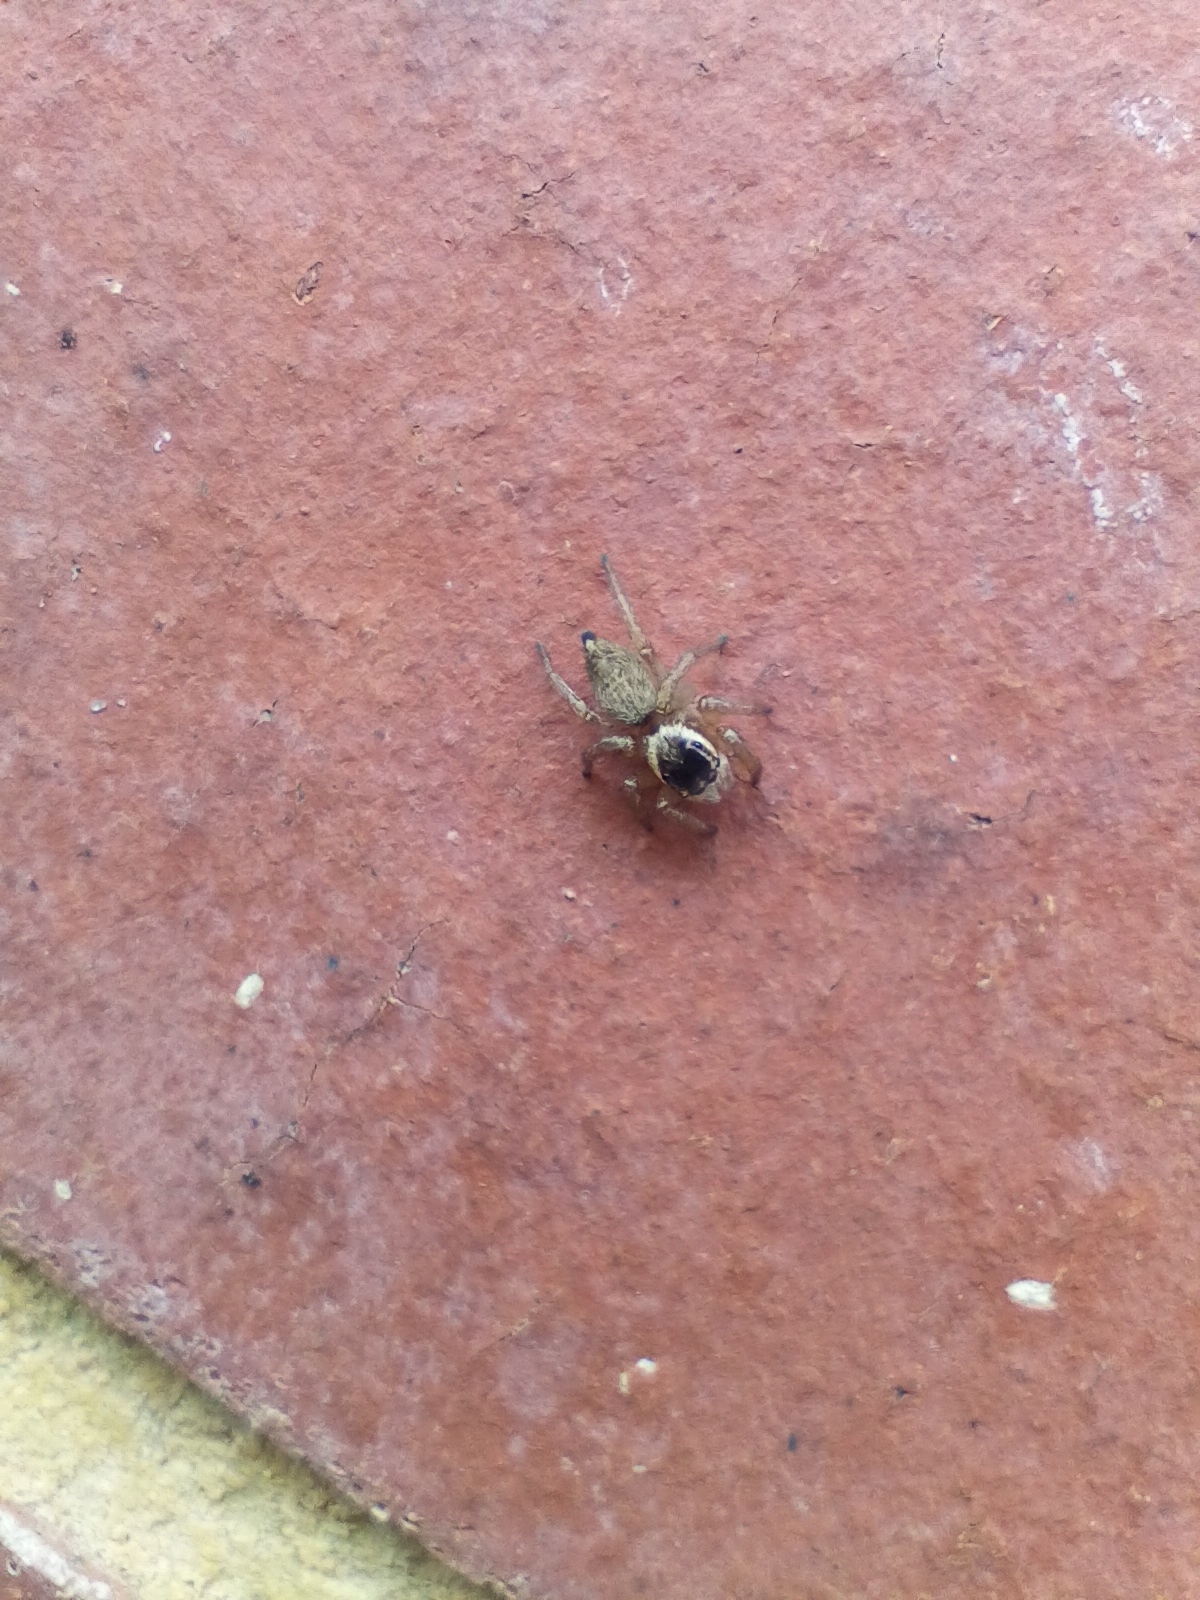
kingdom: Animalia
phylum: Arthropoda
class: Arachnida
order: Araneae
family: Salticidae
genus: Maratus
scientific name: Maratus griseus
